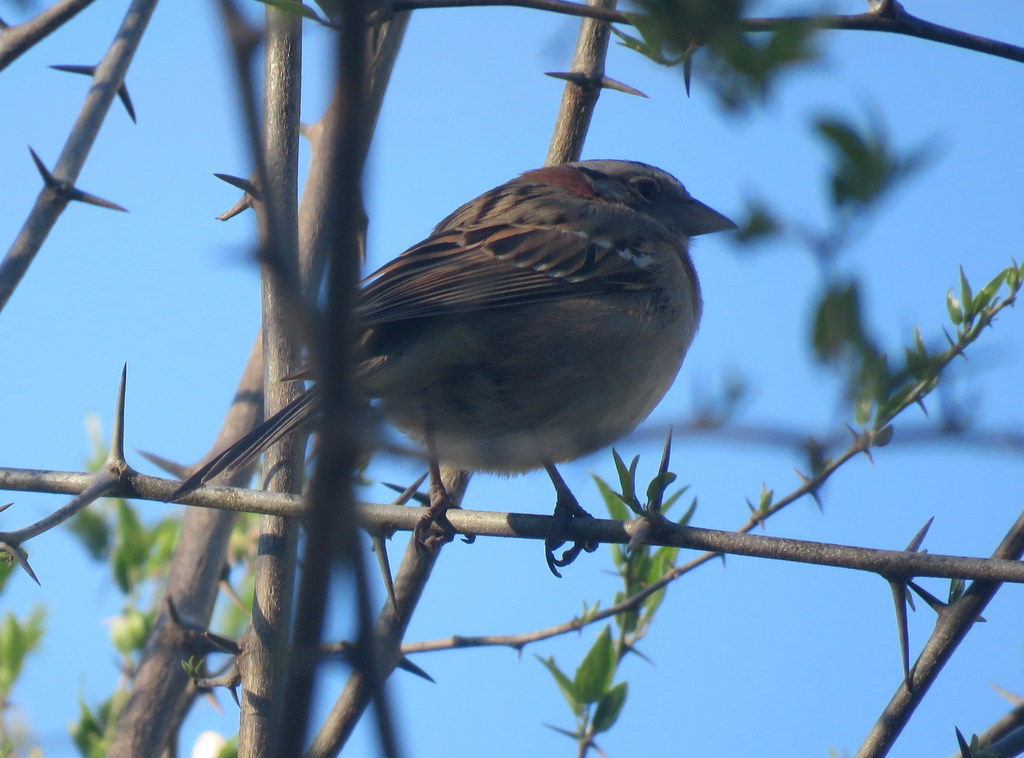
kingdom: Animalia
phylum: Chordata
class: Aves
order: Passeriformes
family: Passerellidae
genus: Zonotrichia
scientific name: Zonotrichia capensis
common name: Rufous-collared sparrow
